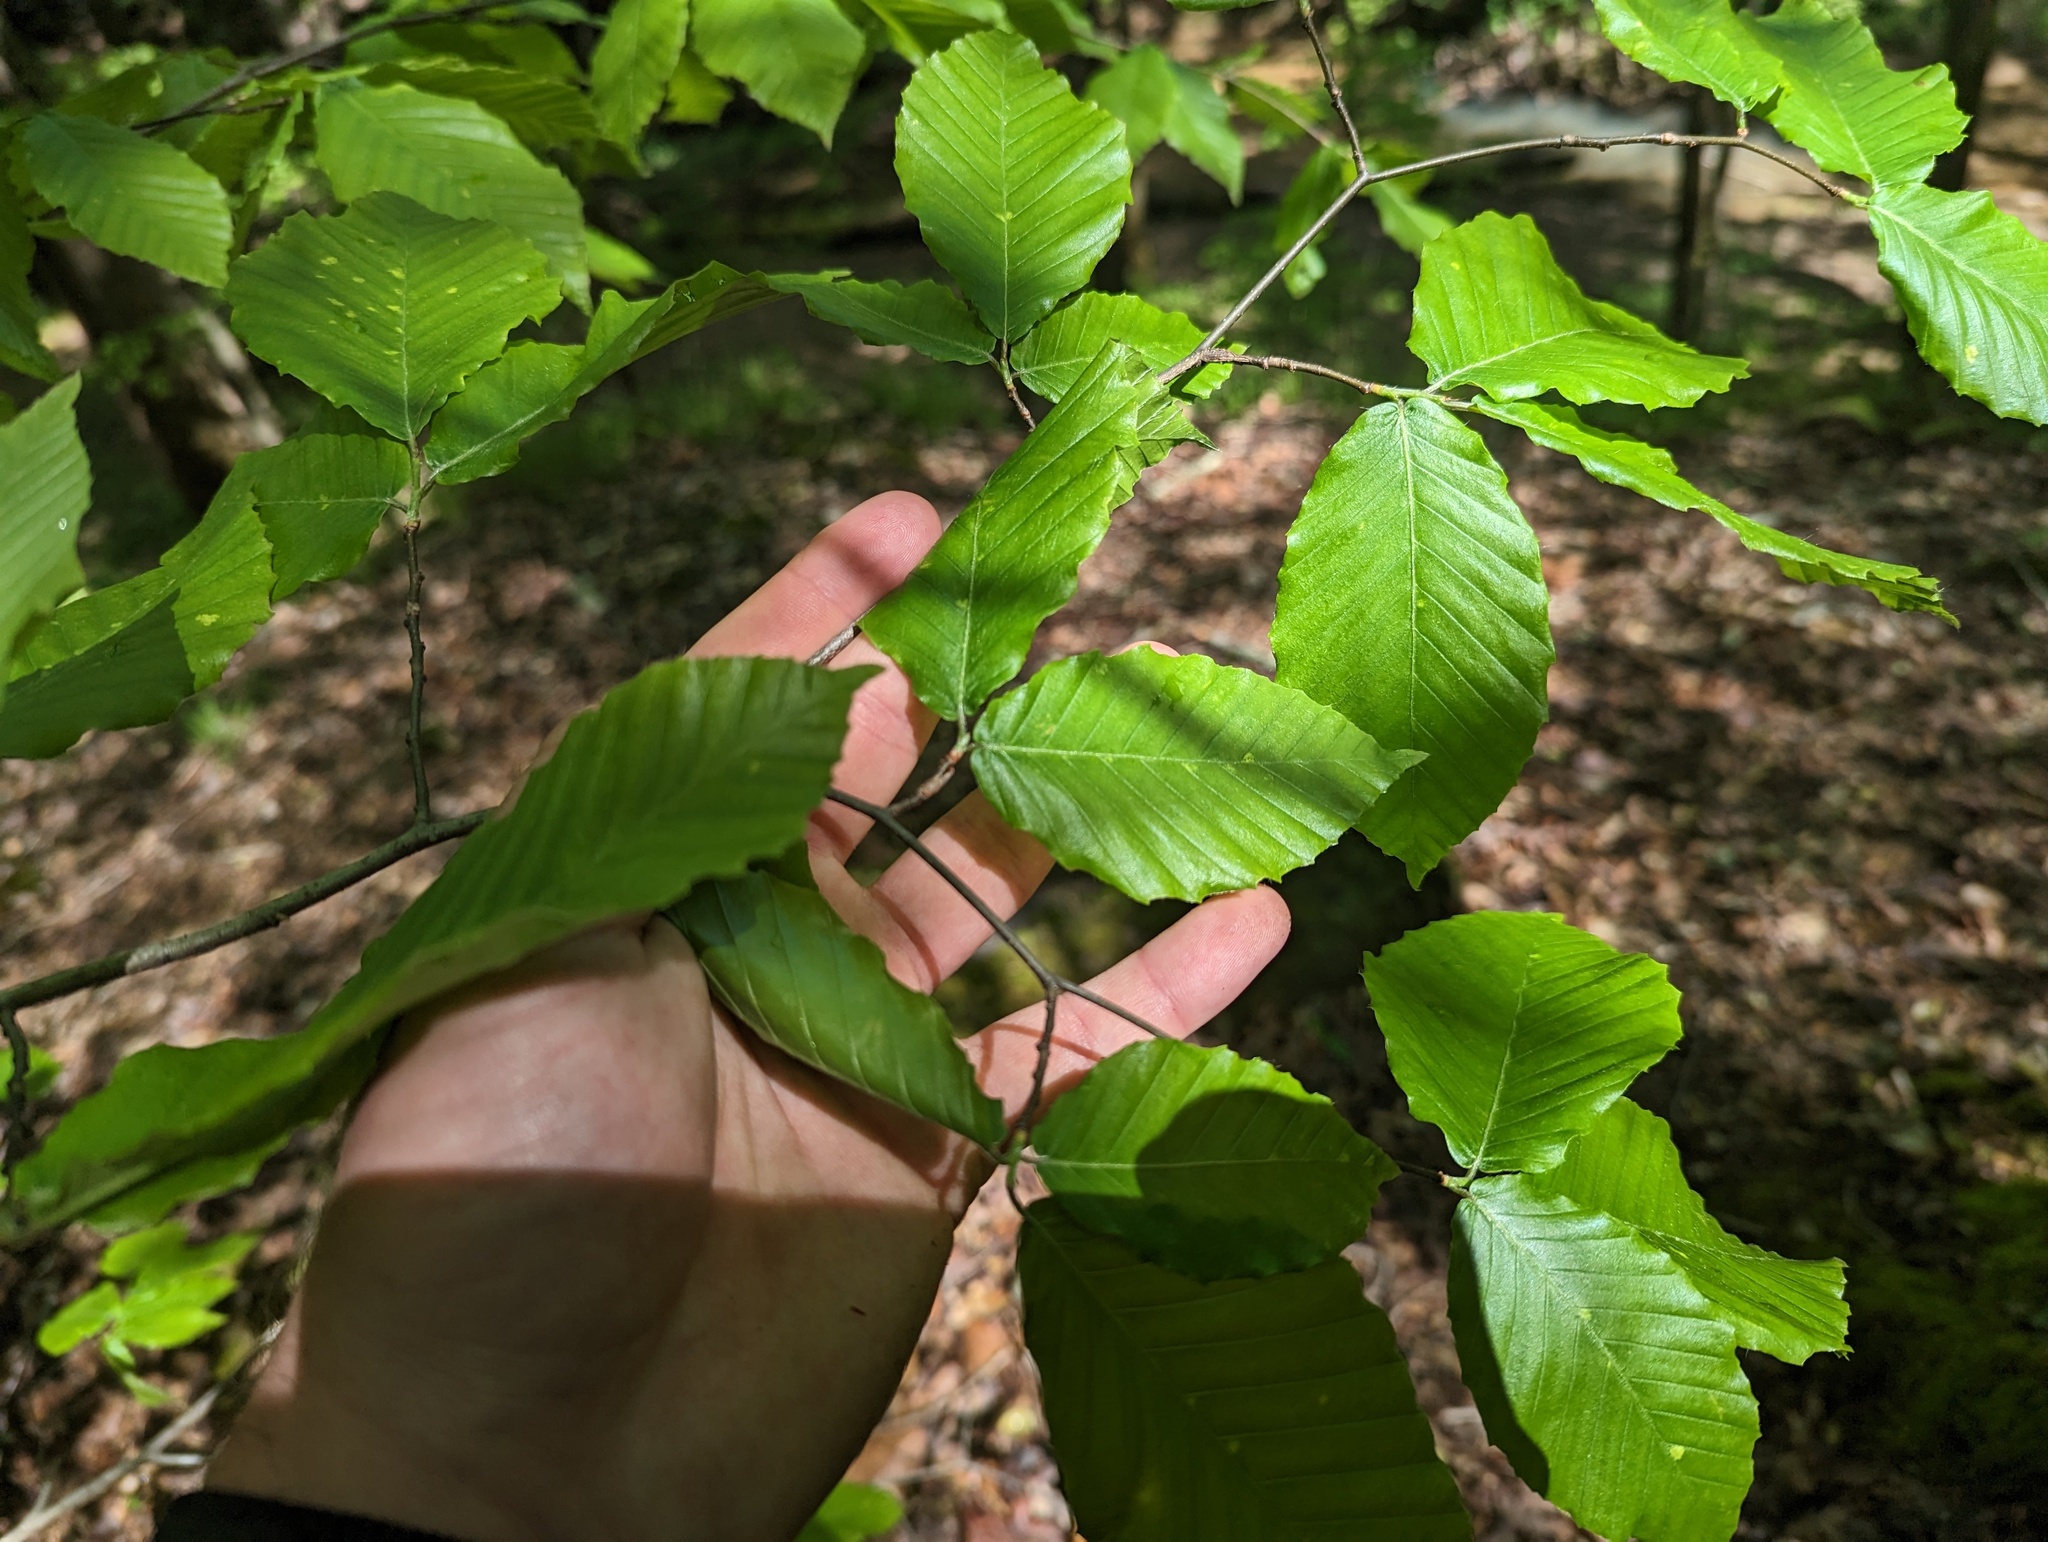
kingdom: Plantae
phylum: Tracheophyta
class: Magnoliopsida
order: Fagales
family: Fagaceae
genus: Fagus
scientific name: Fagus grandifolia
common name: American beech
